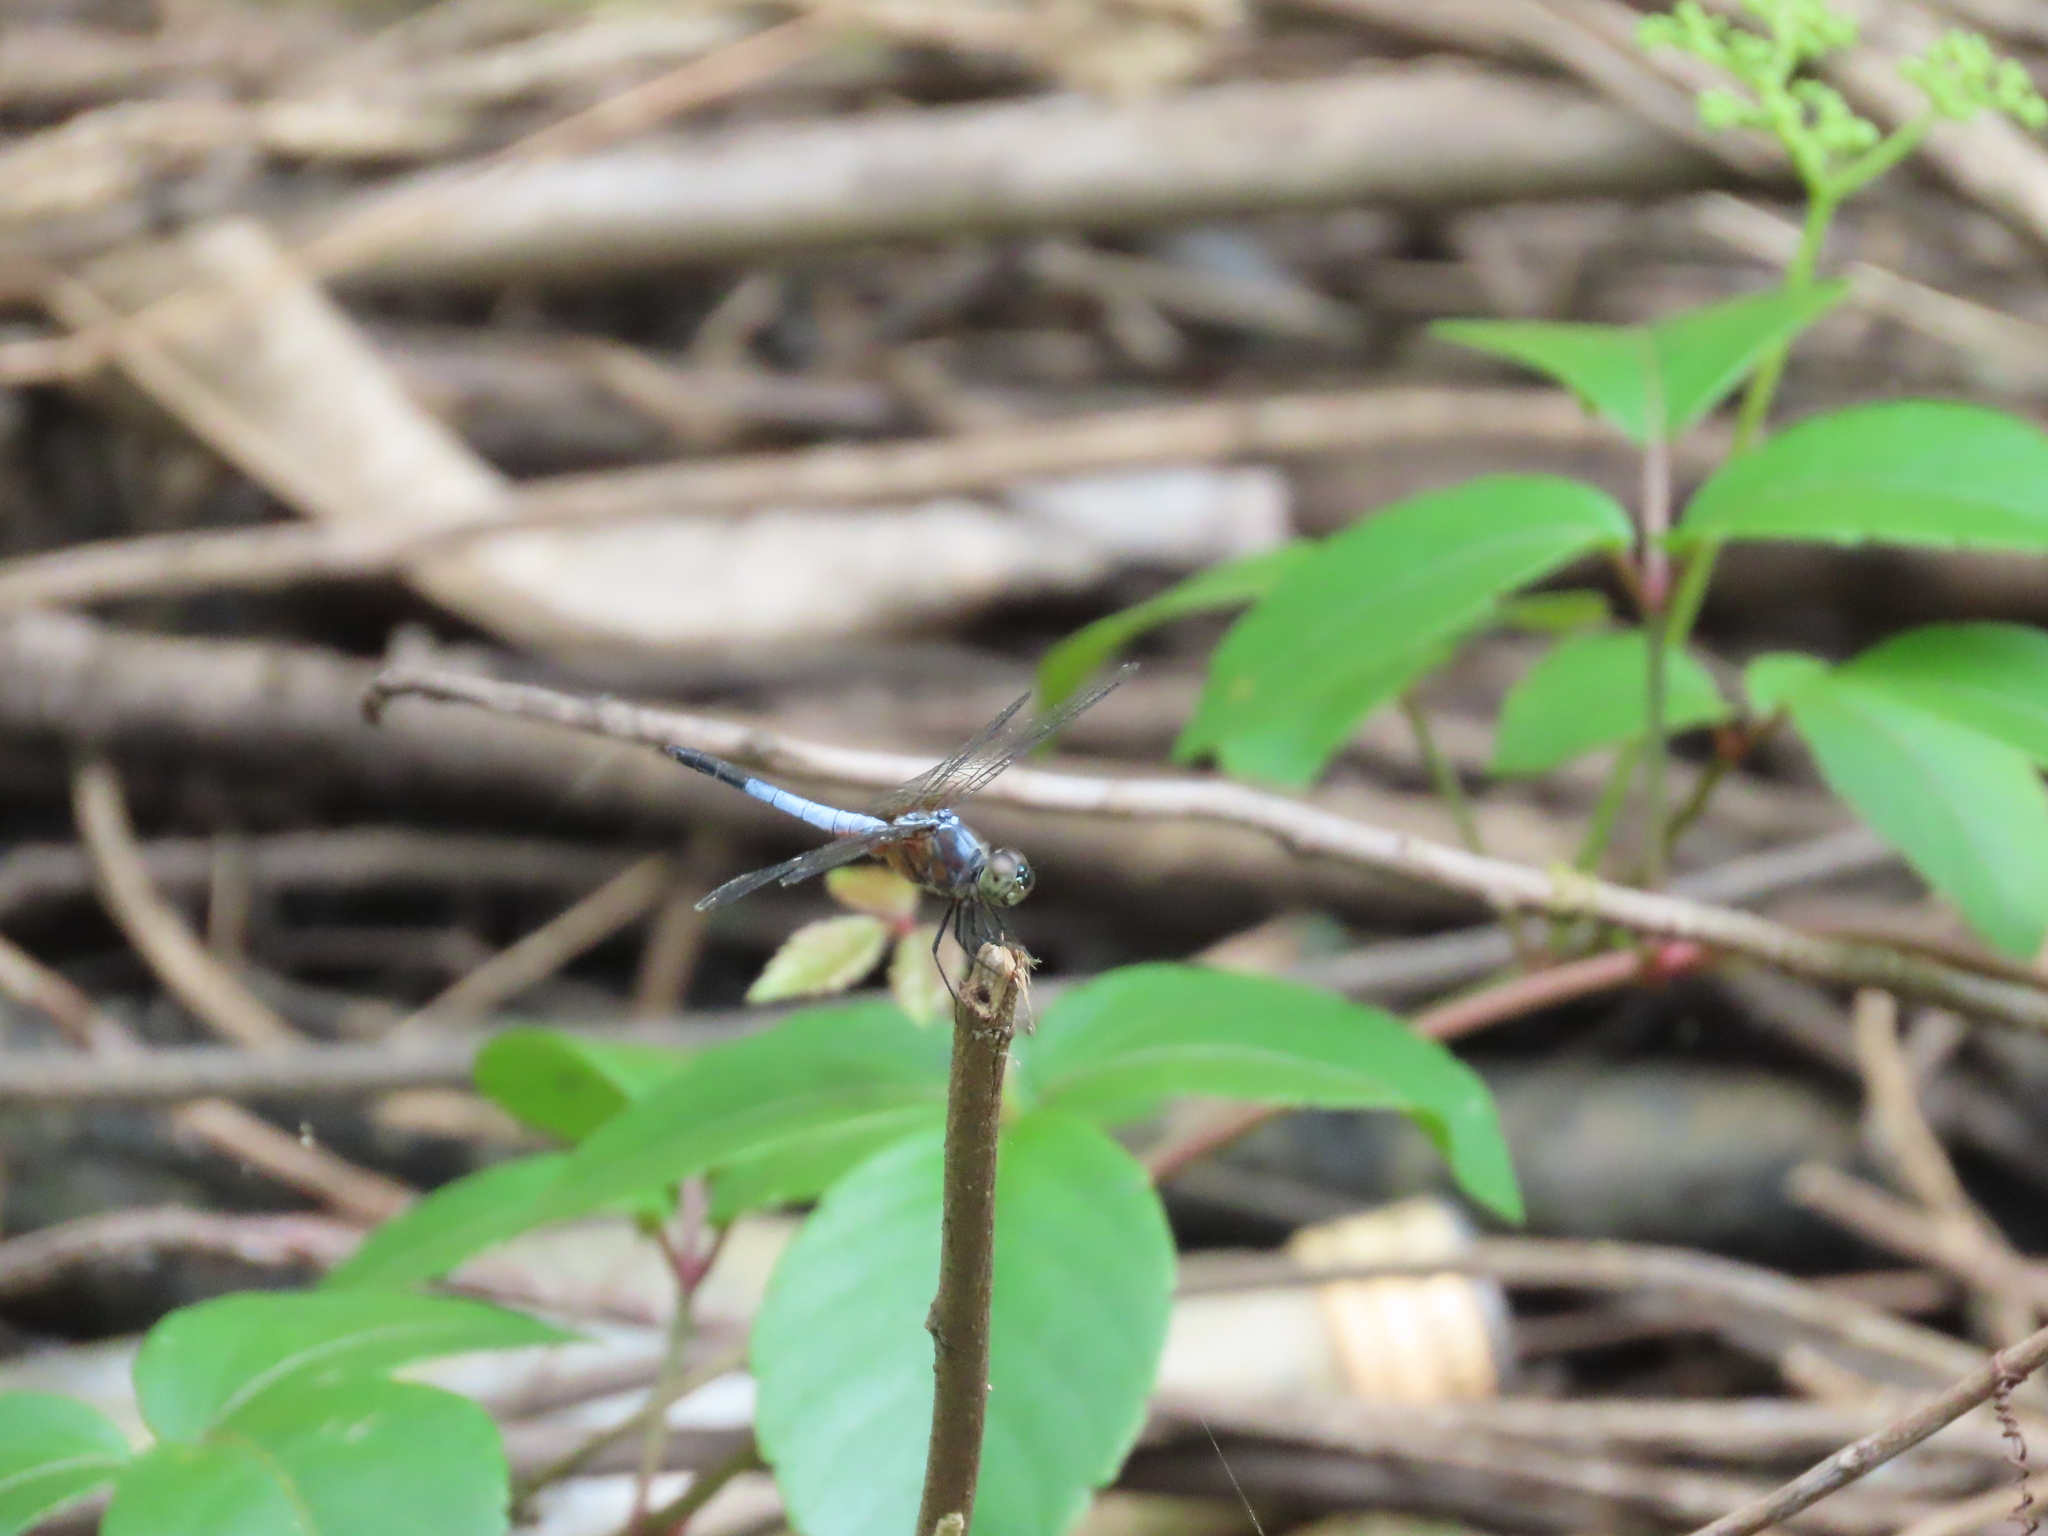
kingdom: Animalia
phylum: Arthropoda
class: Insecta
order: Odonata
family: Libellulidae
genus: Brachydiplax
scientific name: Brachydiplax chalybea
